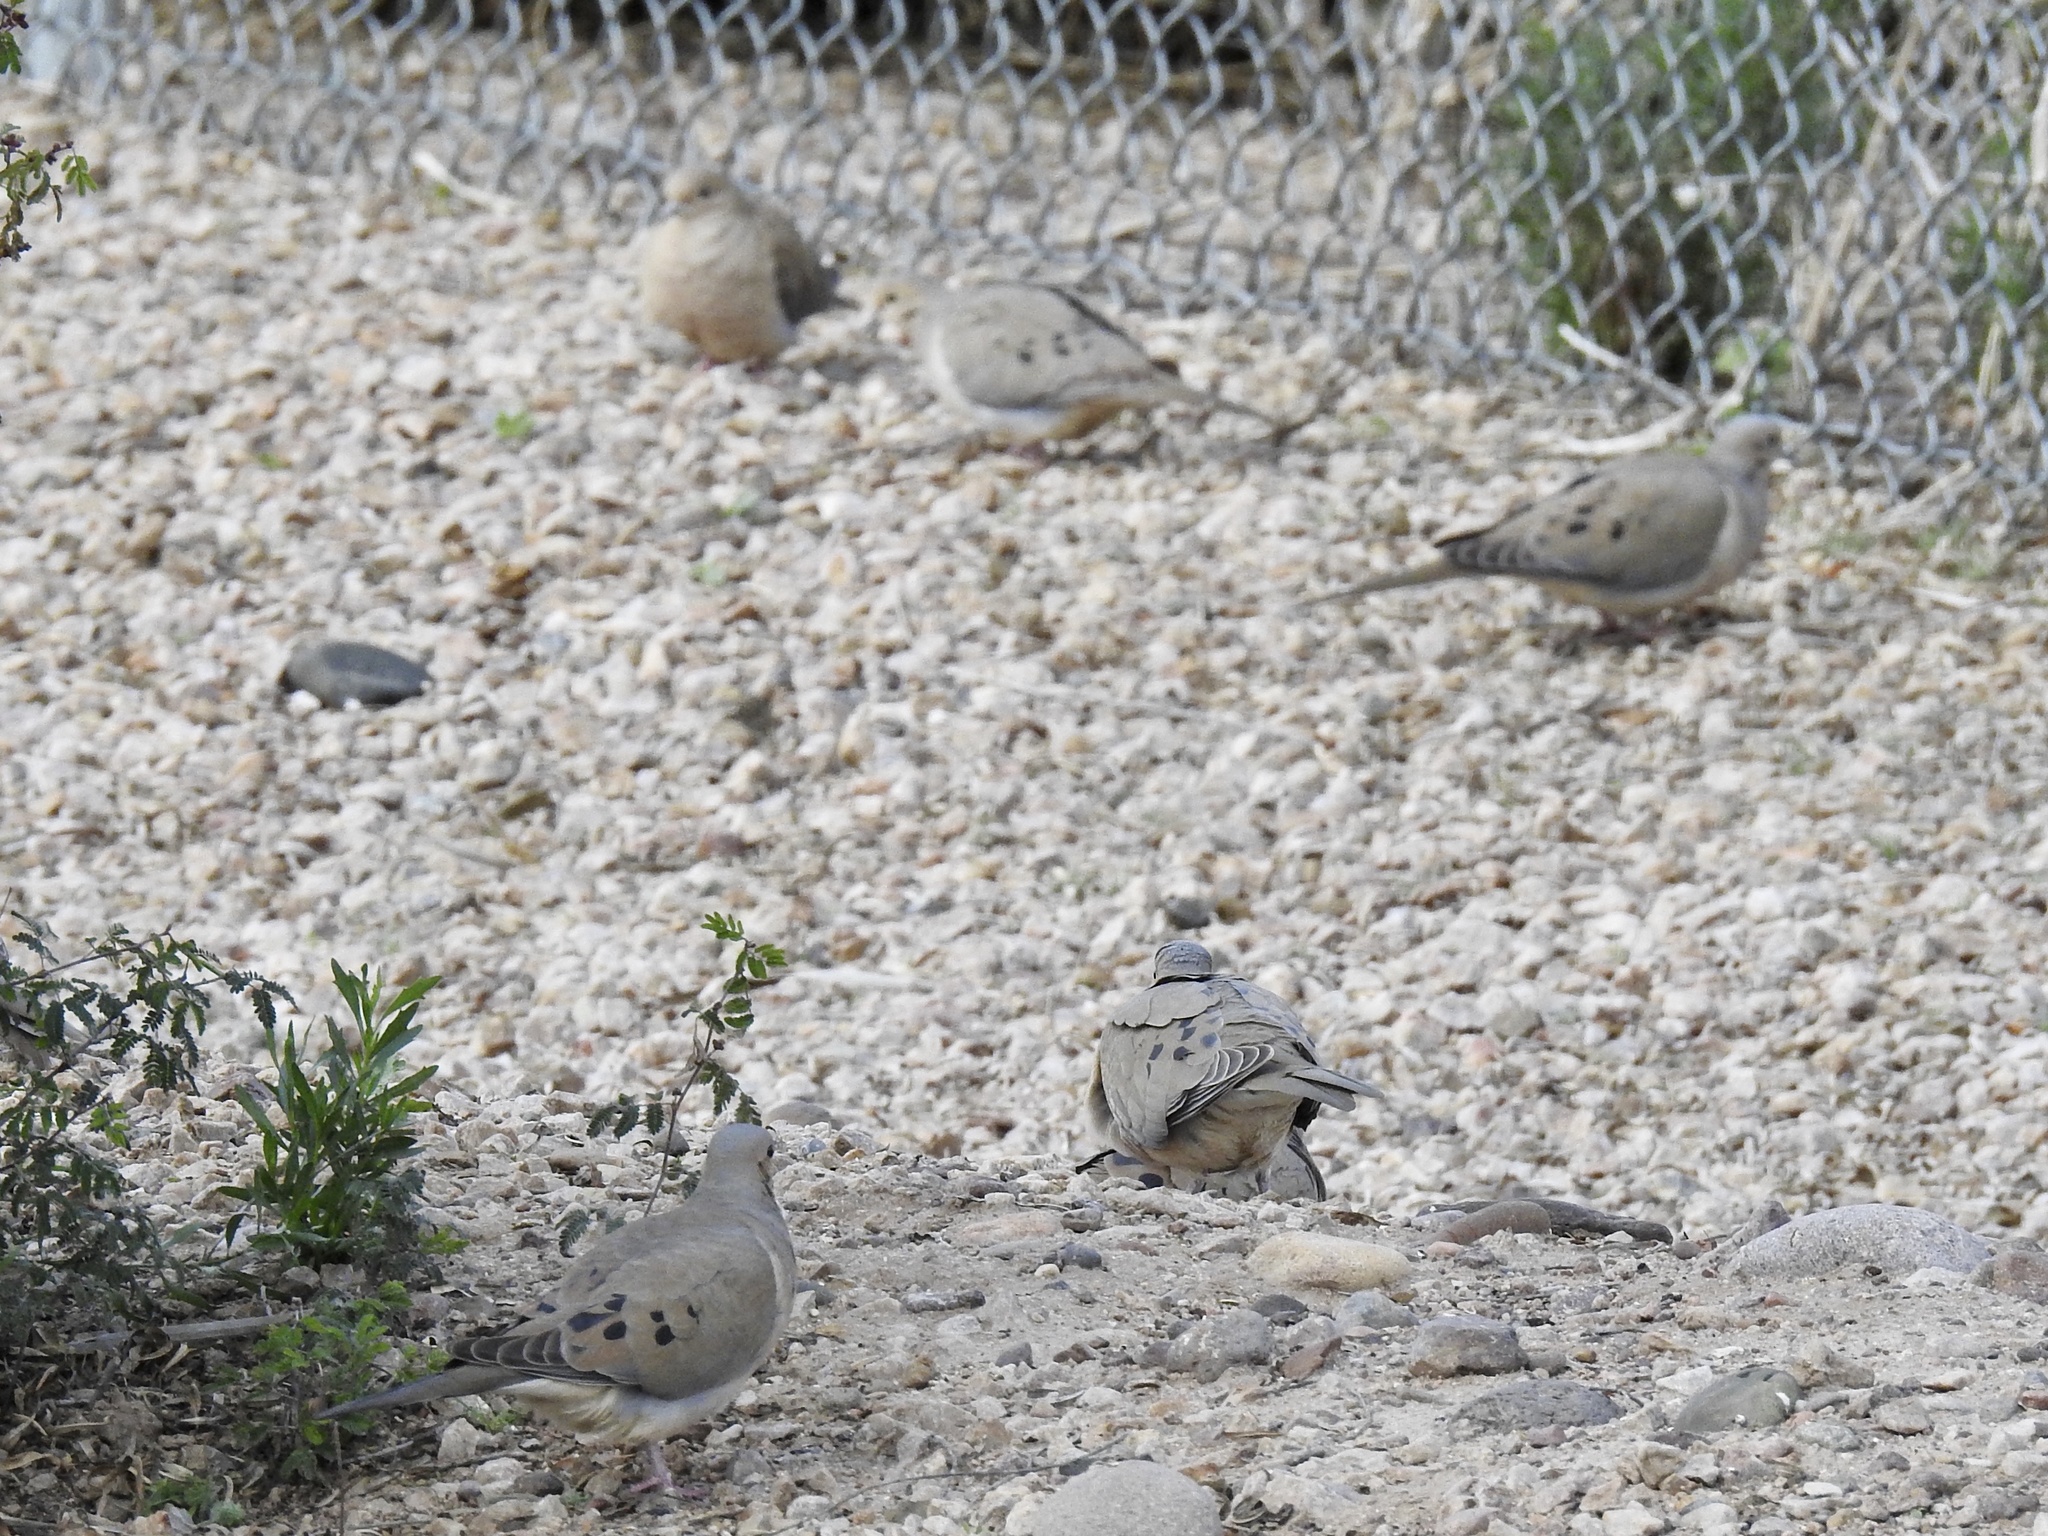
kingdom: Animalia
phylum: Chordata
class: Aves
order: Columbiformes
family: Columbidae
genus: Zenaida
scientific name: Zenaida macroura
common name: Mourning dove
